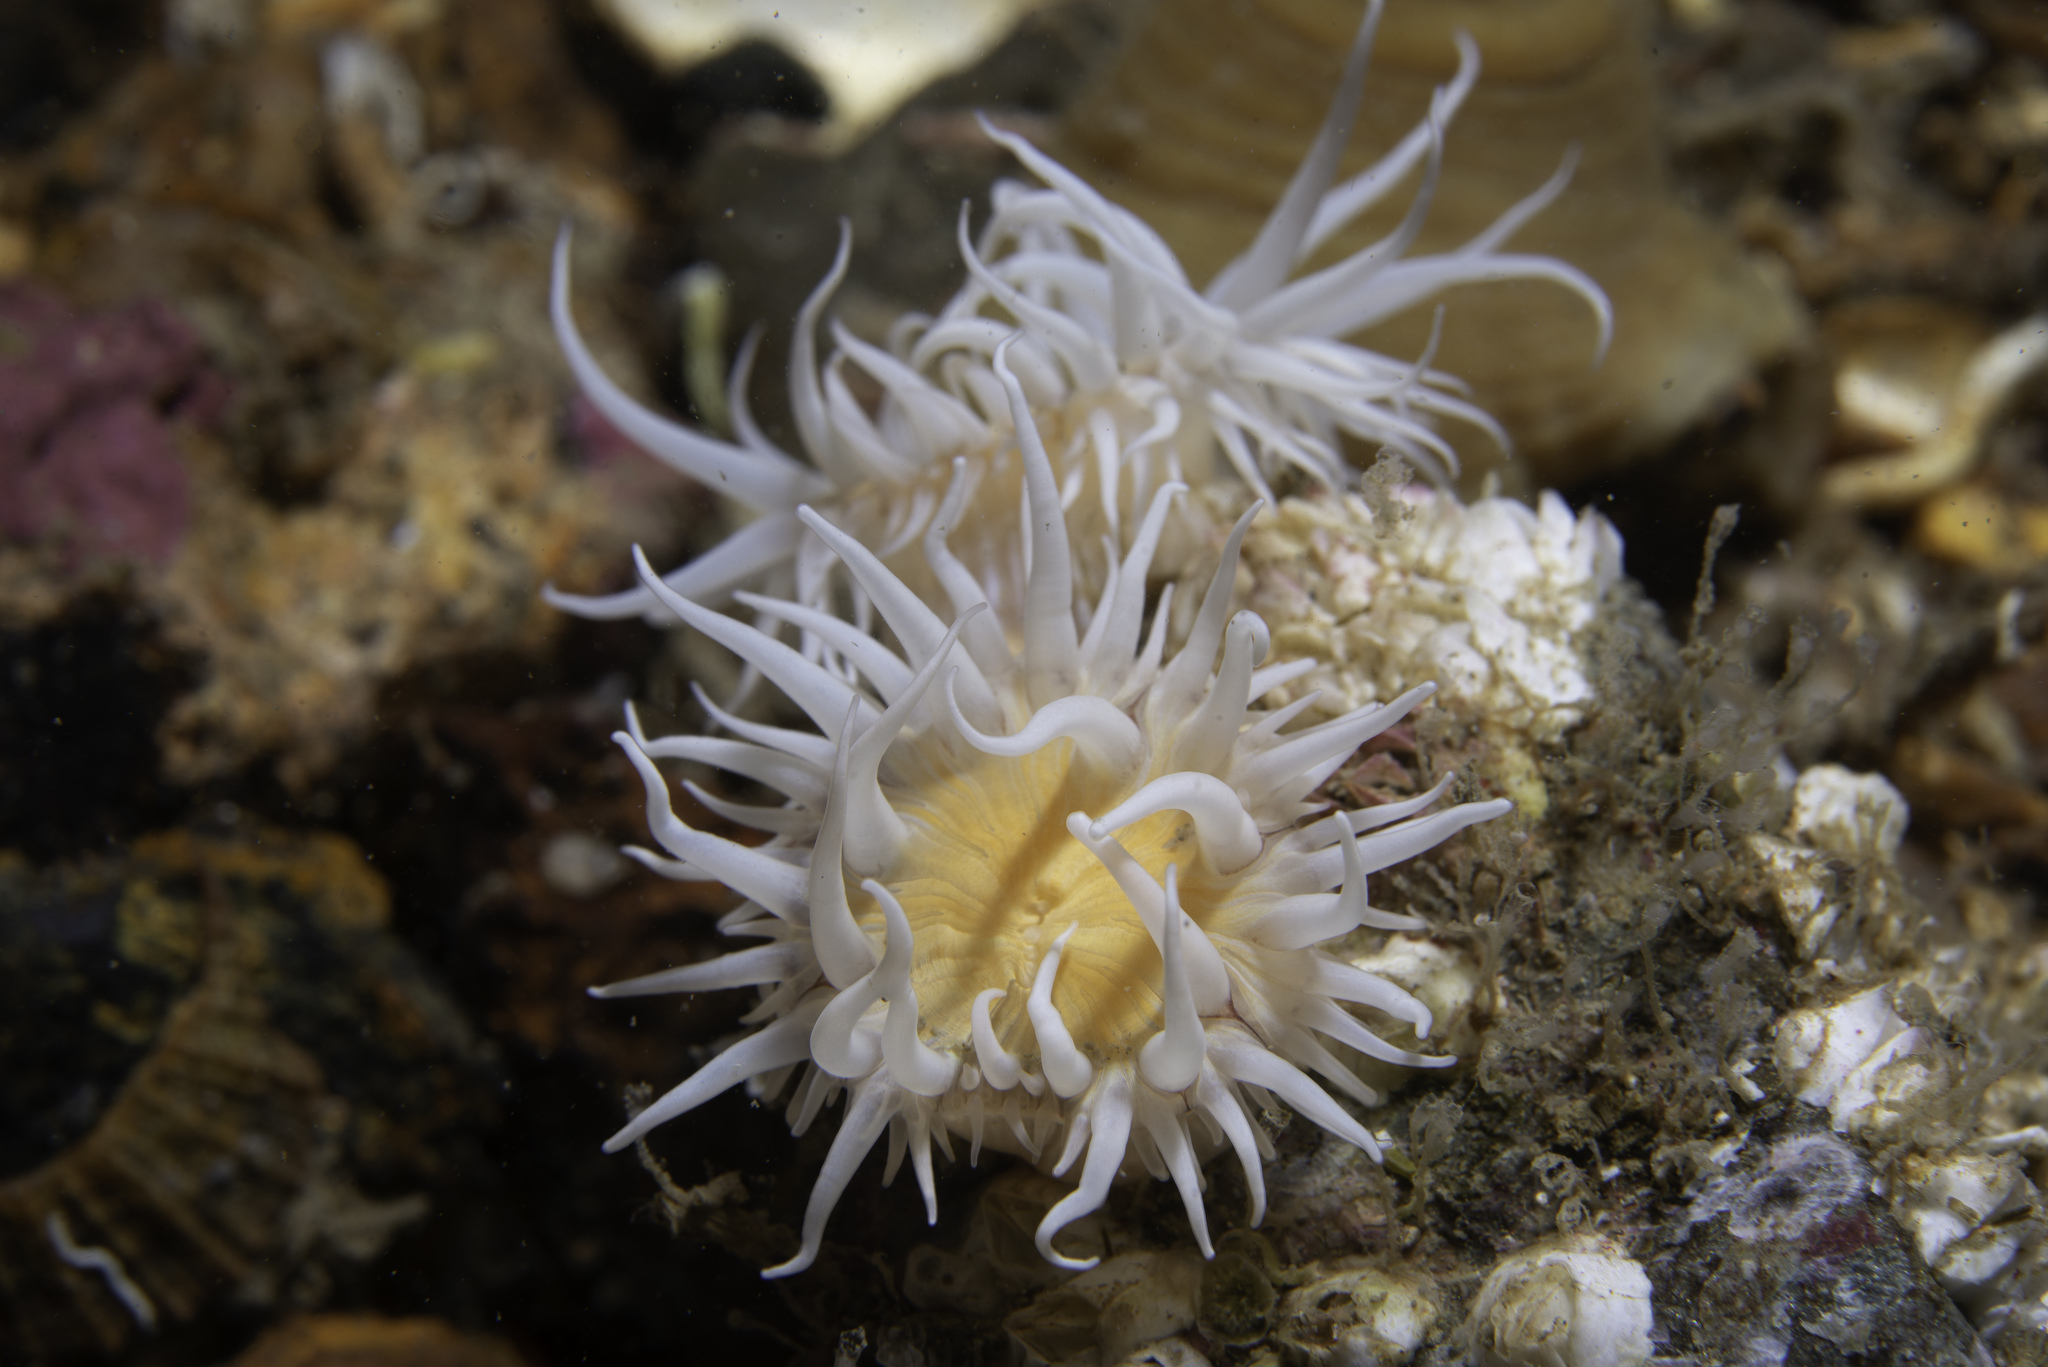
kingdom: Animalia
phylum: Cnidaria
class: Anthozoa
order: Actiniaria
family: Sagartiidae
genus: Actinothoe
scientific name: Actinothoe sphyrodeta
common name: Sandalled anemone
